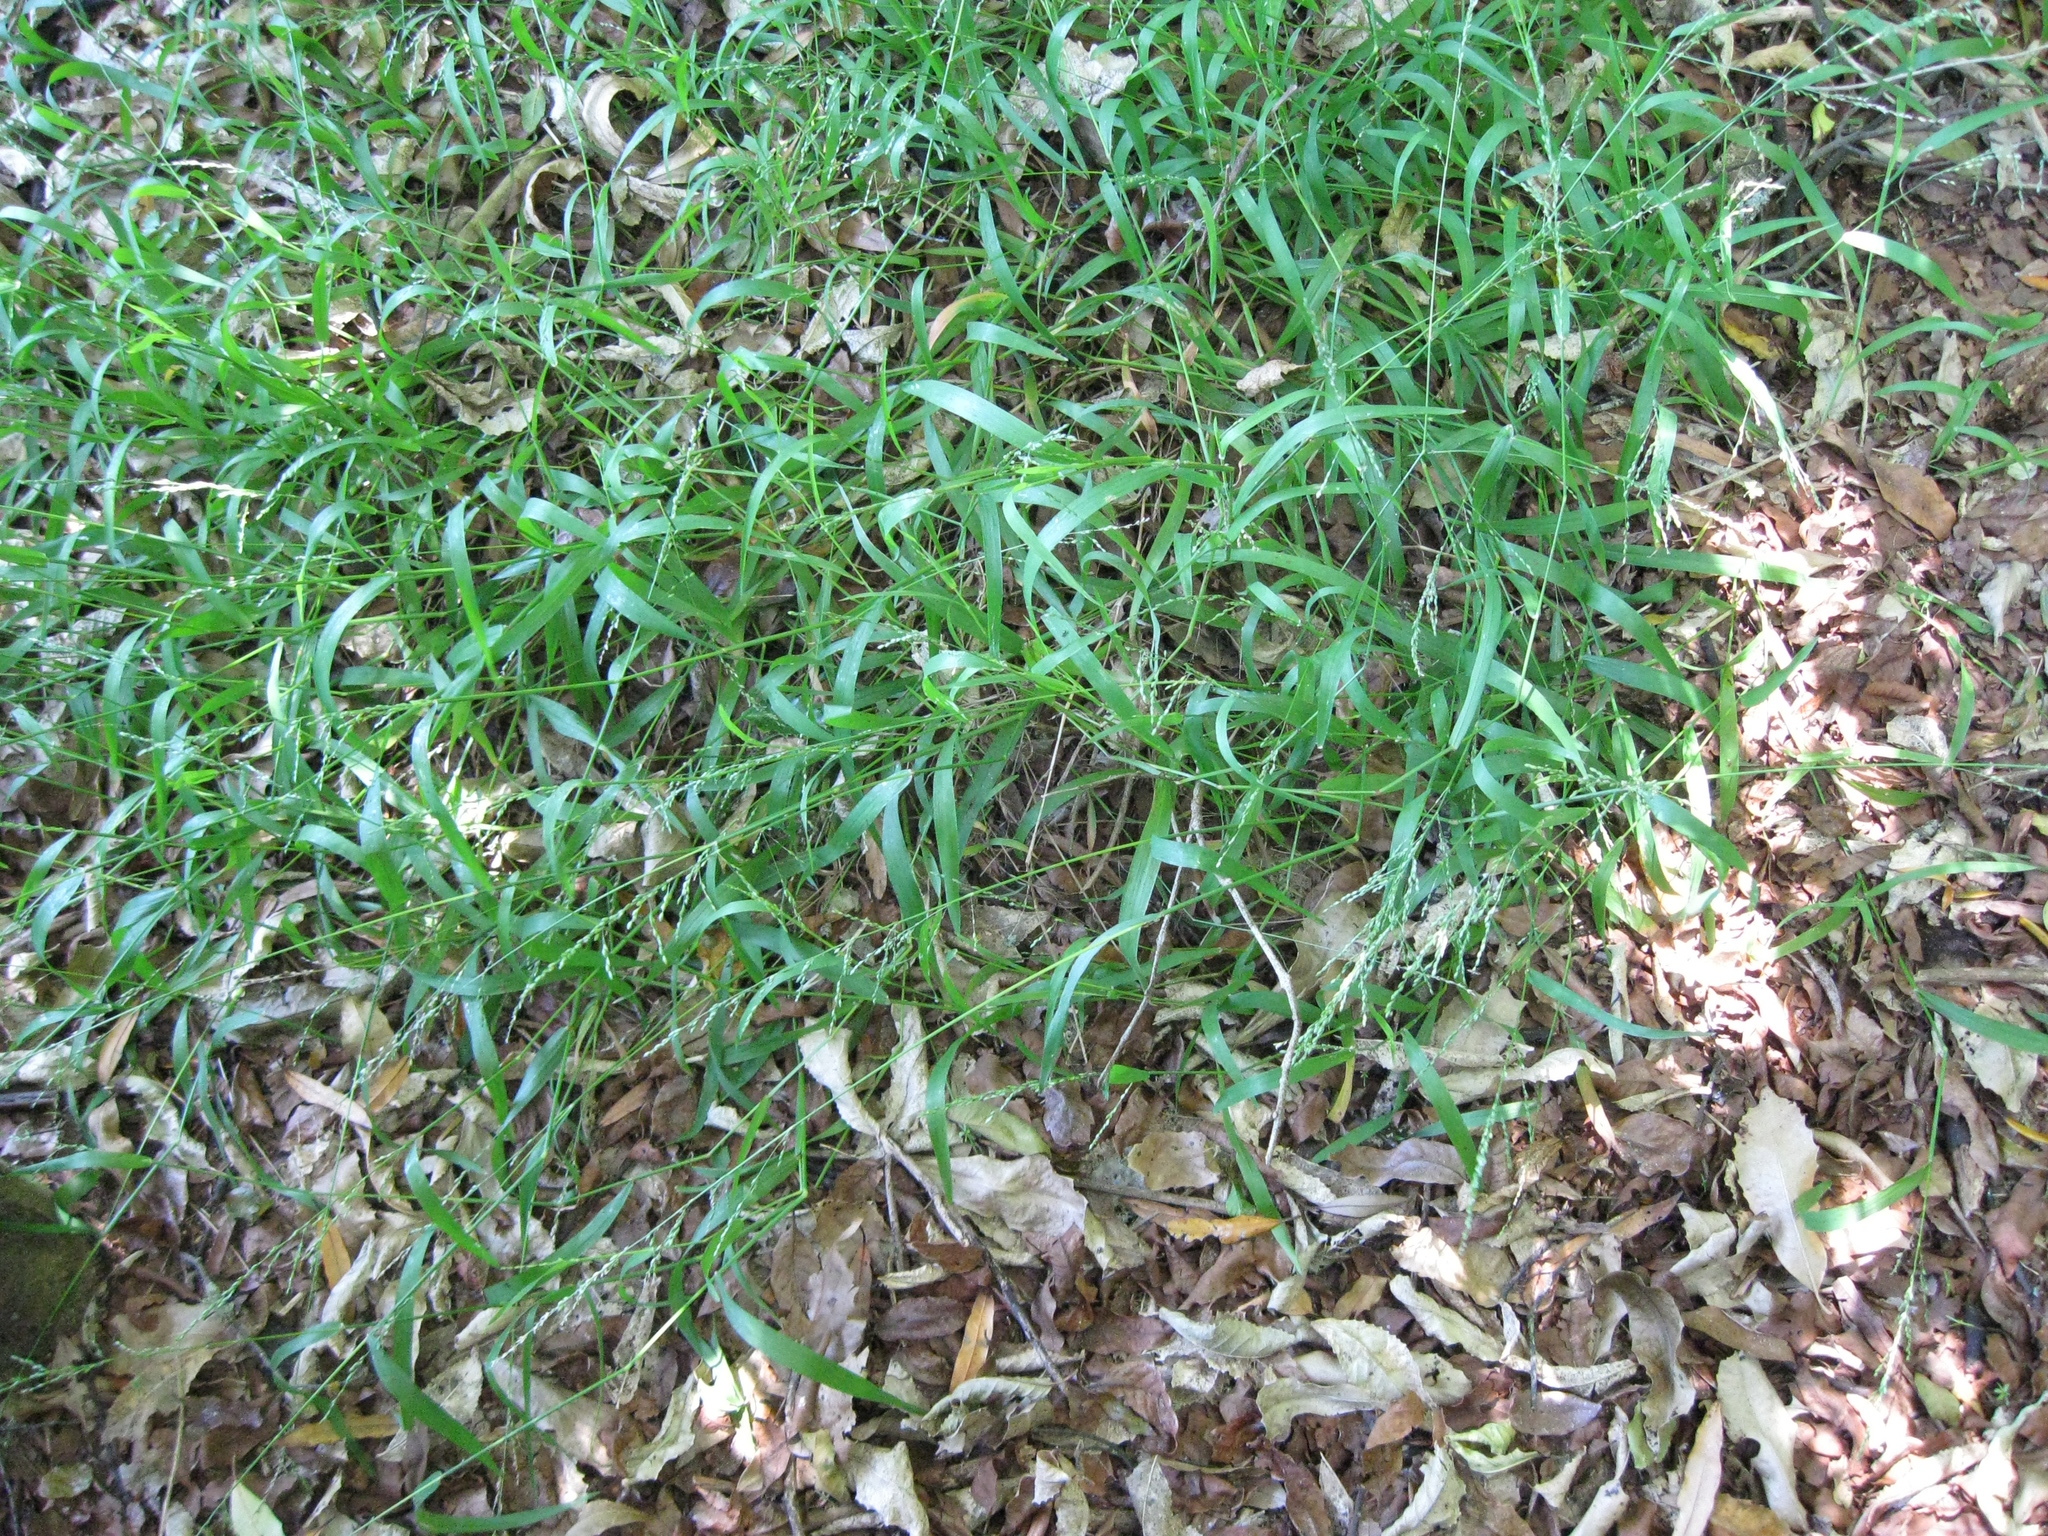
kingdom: Plantae
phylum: Tracheophyta
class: Liliopsida
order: Poales
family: Poaceae
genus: Ehrharta
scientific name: Ehrharta erecta
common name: Panic veldtgrass
